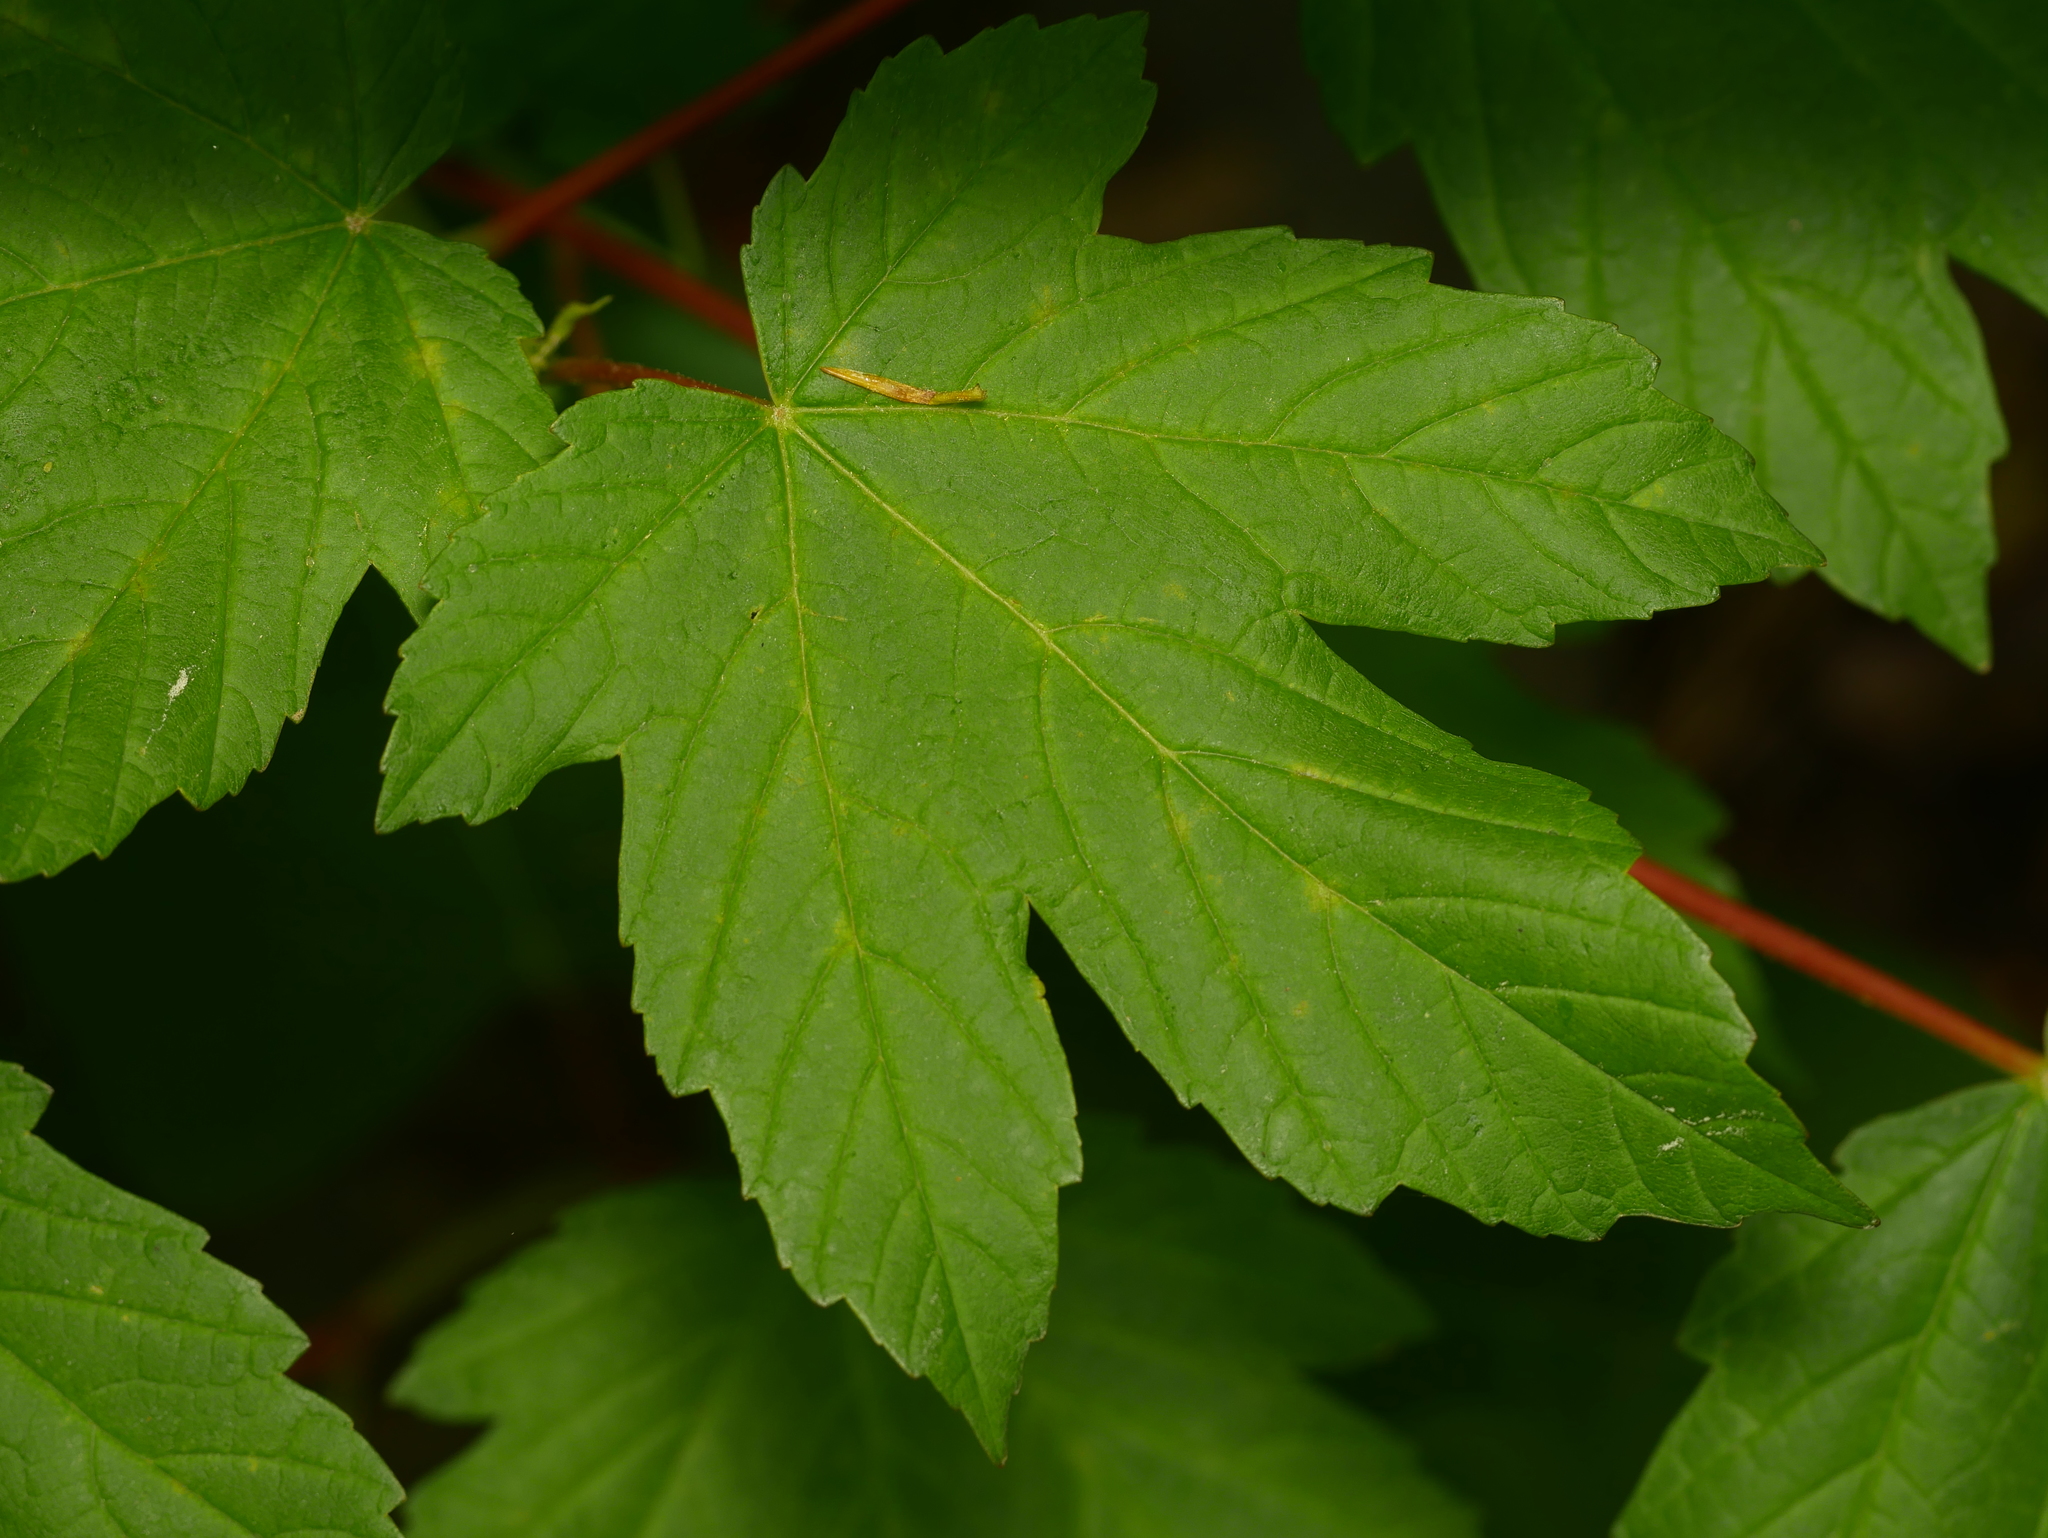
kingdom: Plantae
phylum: Tracheophyta
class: Magnoliopsida
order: Sapindales
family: Sapindaceae
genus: Acer
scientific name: Acer pseudoplatanus
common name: Sycamore
